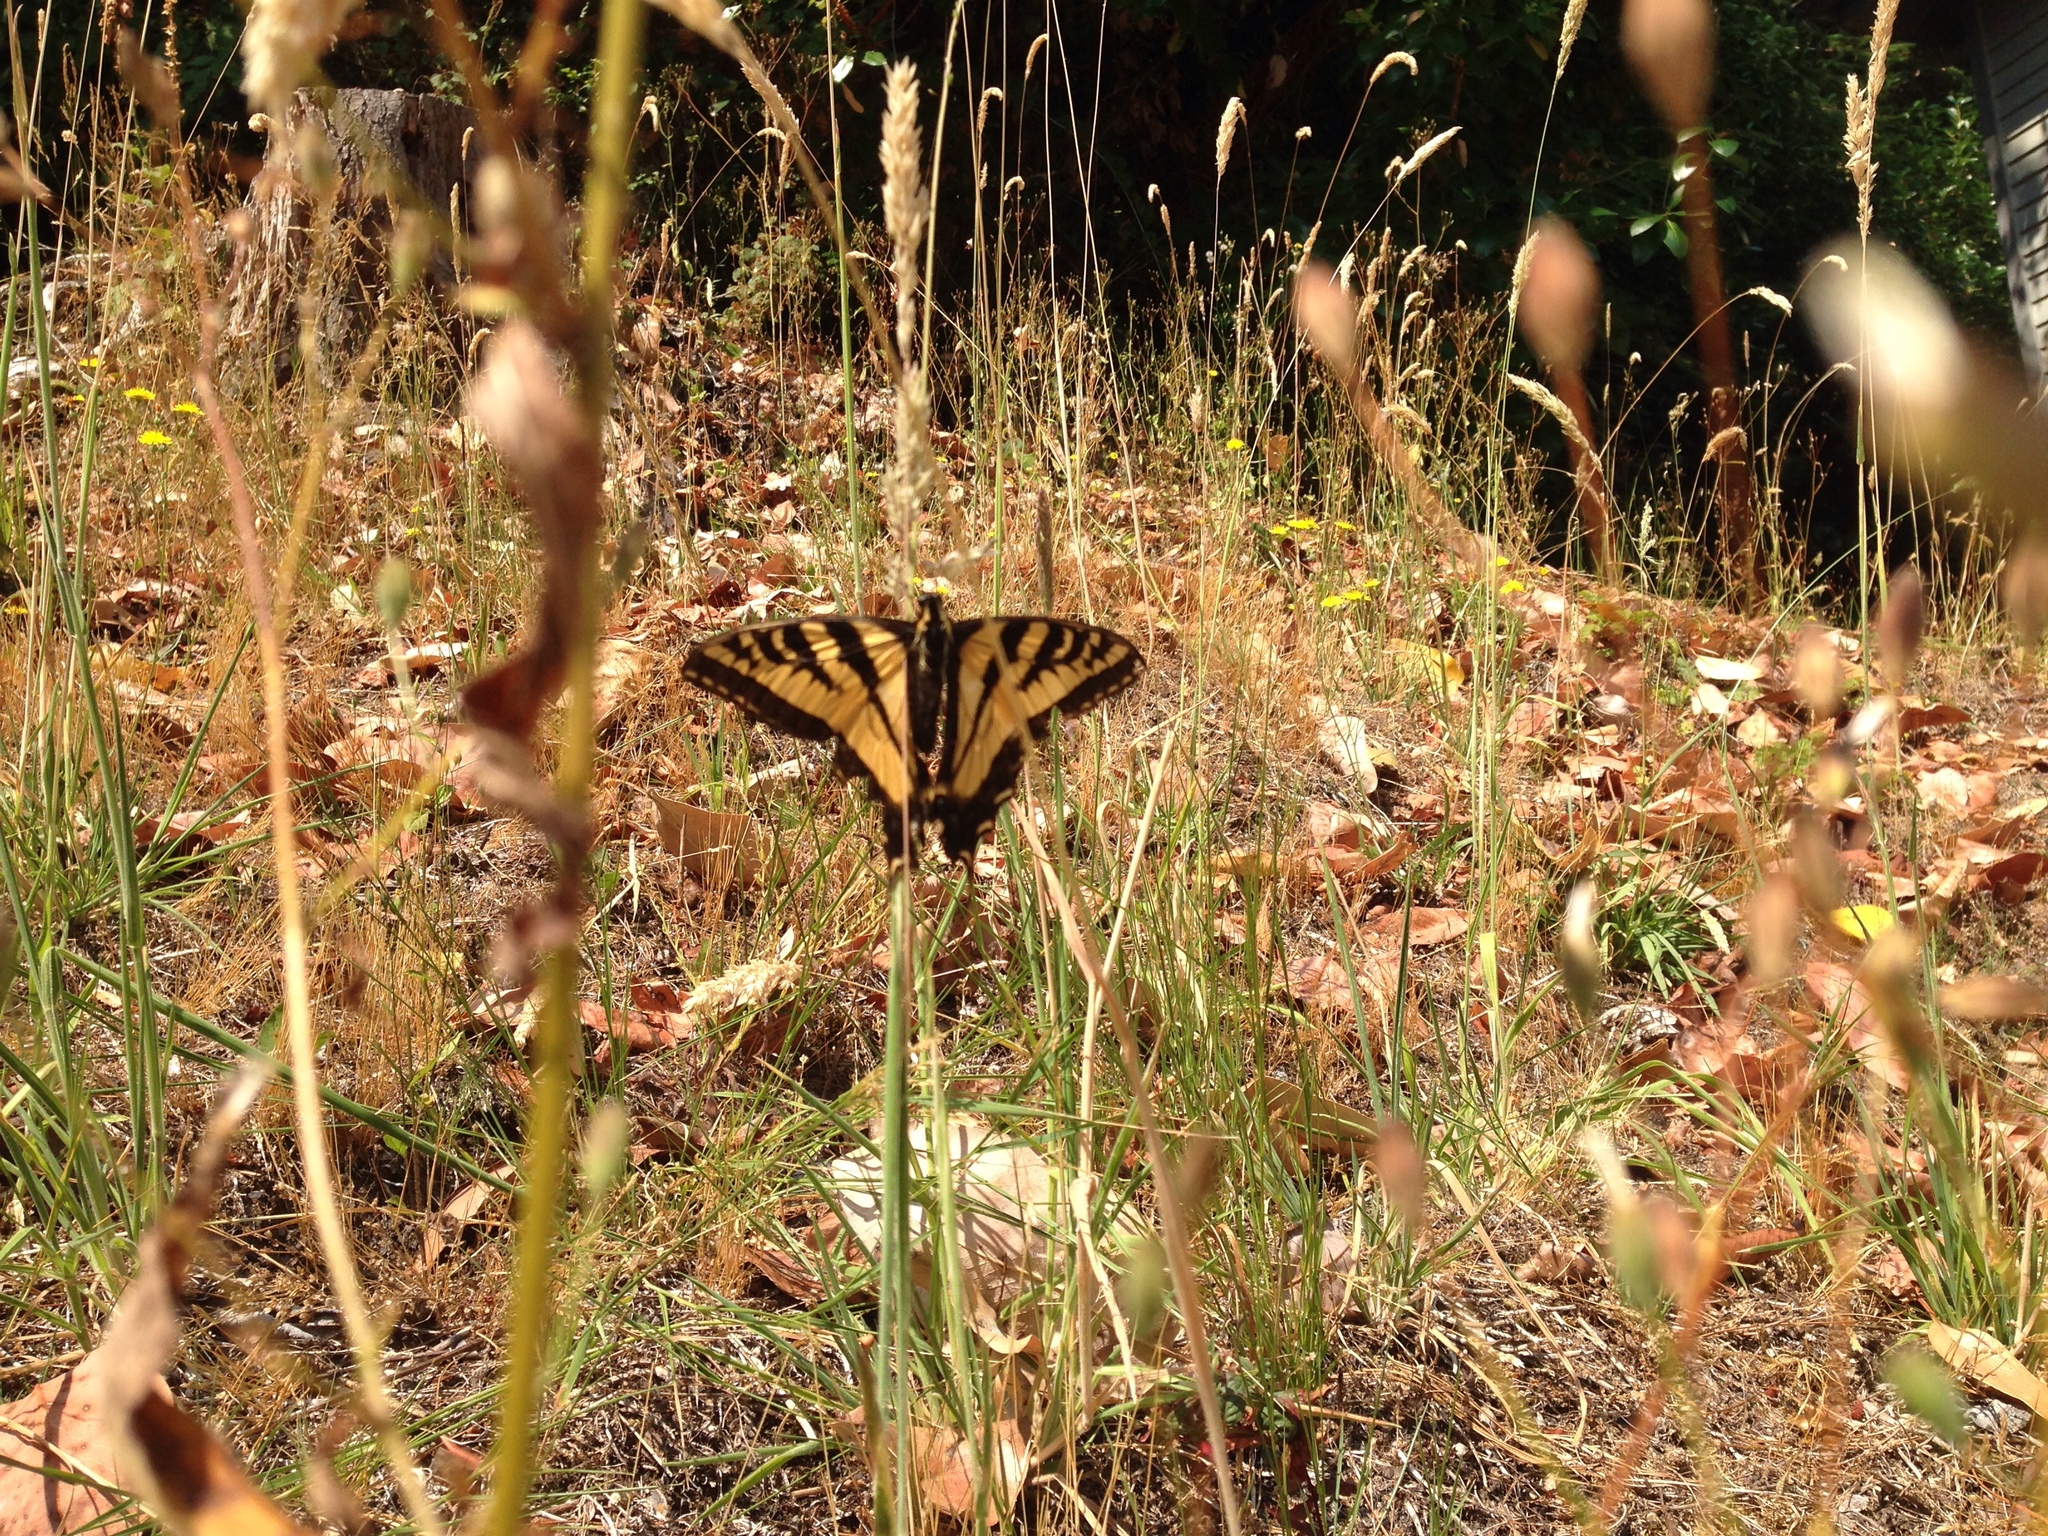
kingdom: Animalia
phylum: Arthropoda
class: Insecta
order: Lepidoptera
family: Papilionidae
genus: Papilio
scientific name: Papilio rutulus
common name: Western tiger swallowtail
